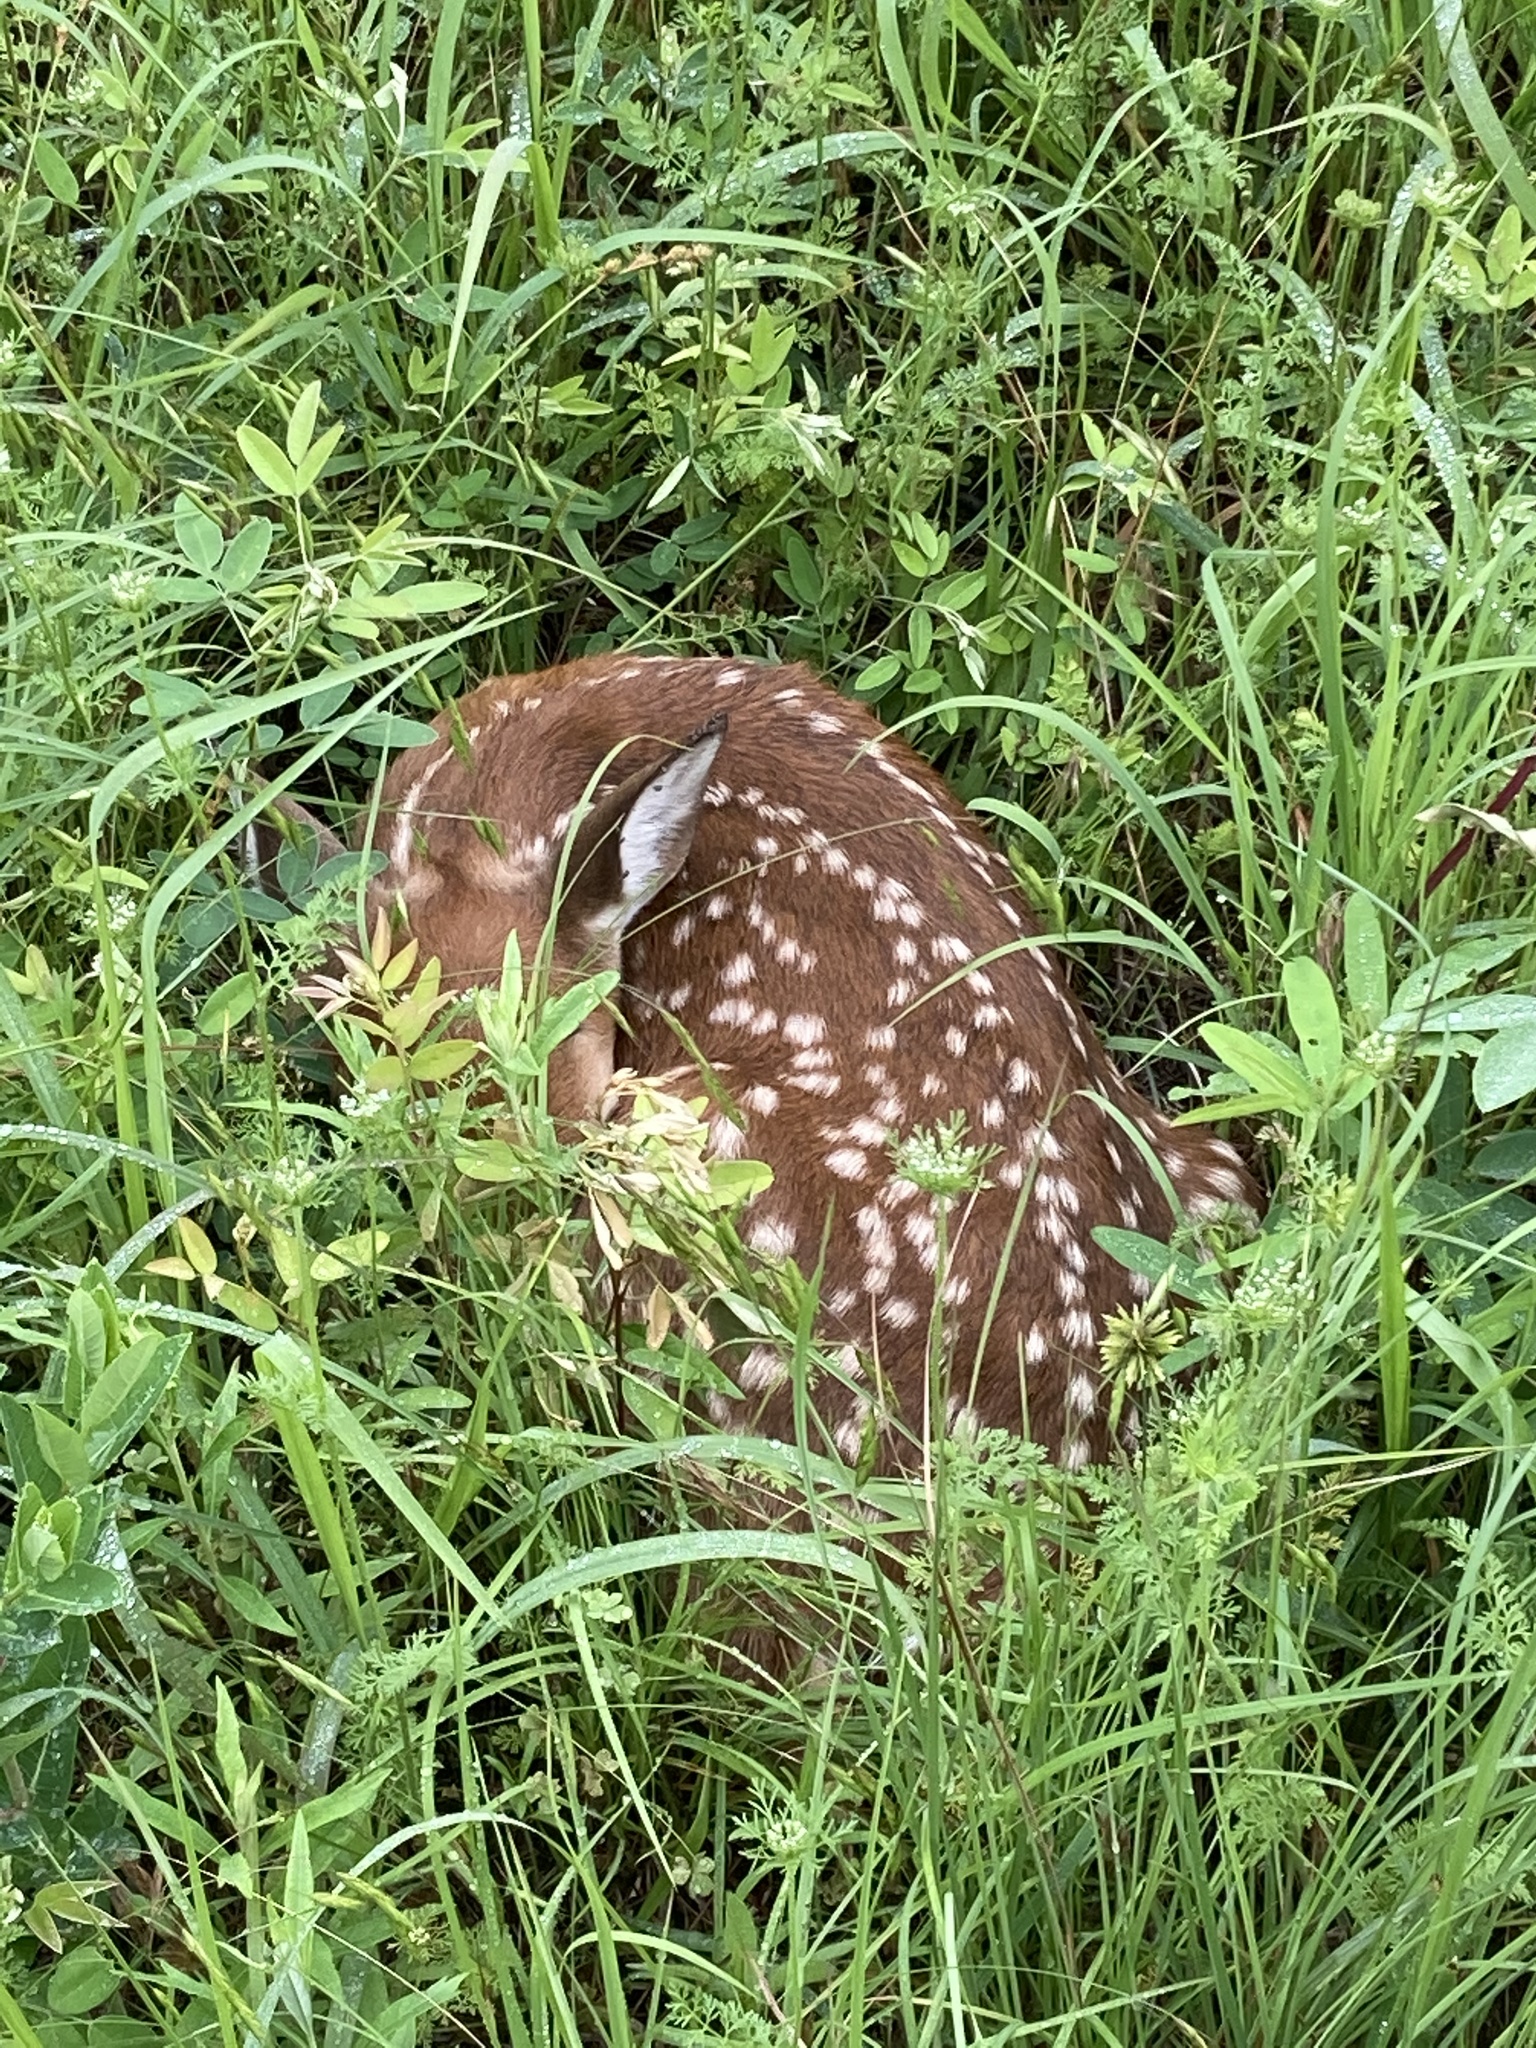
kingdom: Animalia
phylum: Chordata
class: Mammalia
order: Artiodactyla
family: Cervidae
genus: Odocoileus
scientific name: Odocoileus virginianus
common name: White-tailed deer
